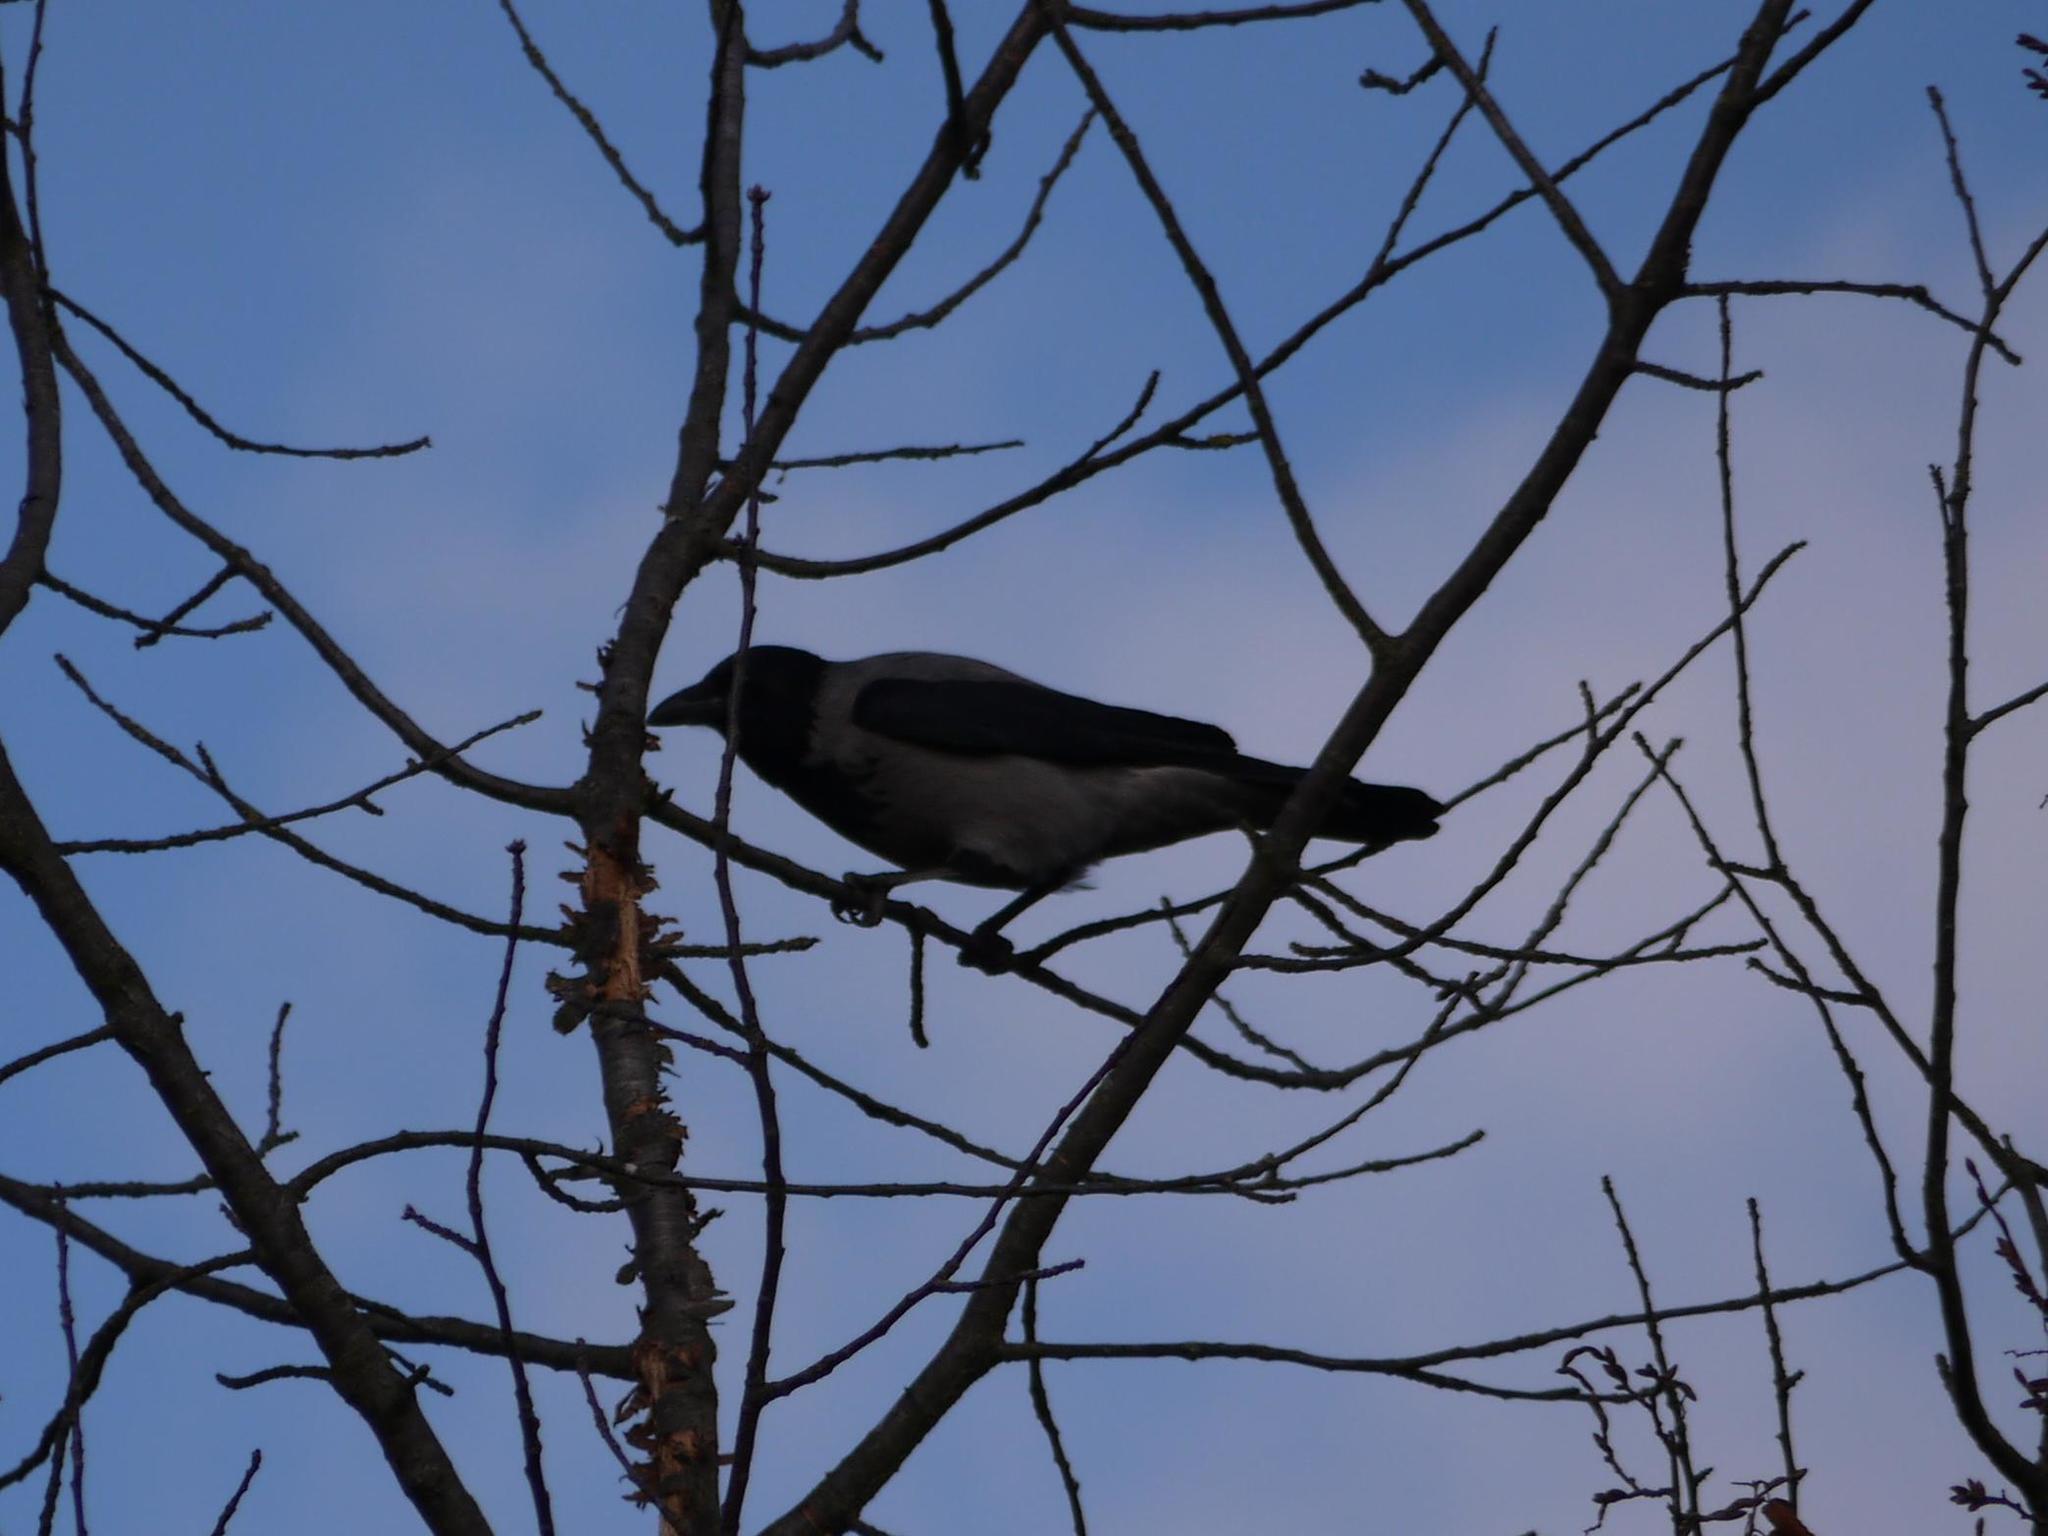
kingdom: Animalia
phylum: Chordata
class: Aves
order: Passeriformes
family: Corvidae
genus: Corvus
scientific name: Corvus cornix
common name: Hooded crow
